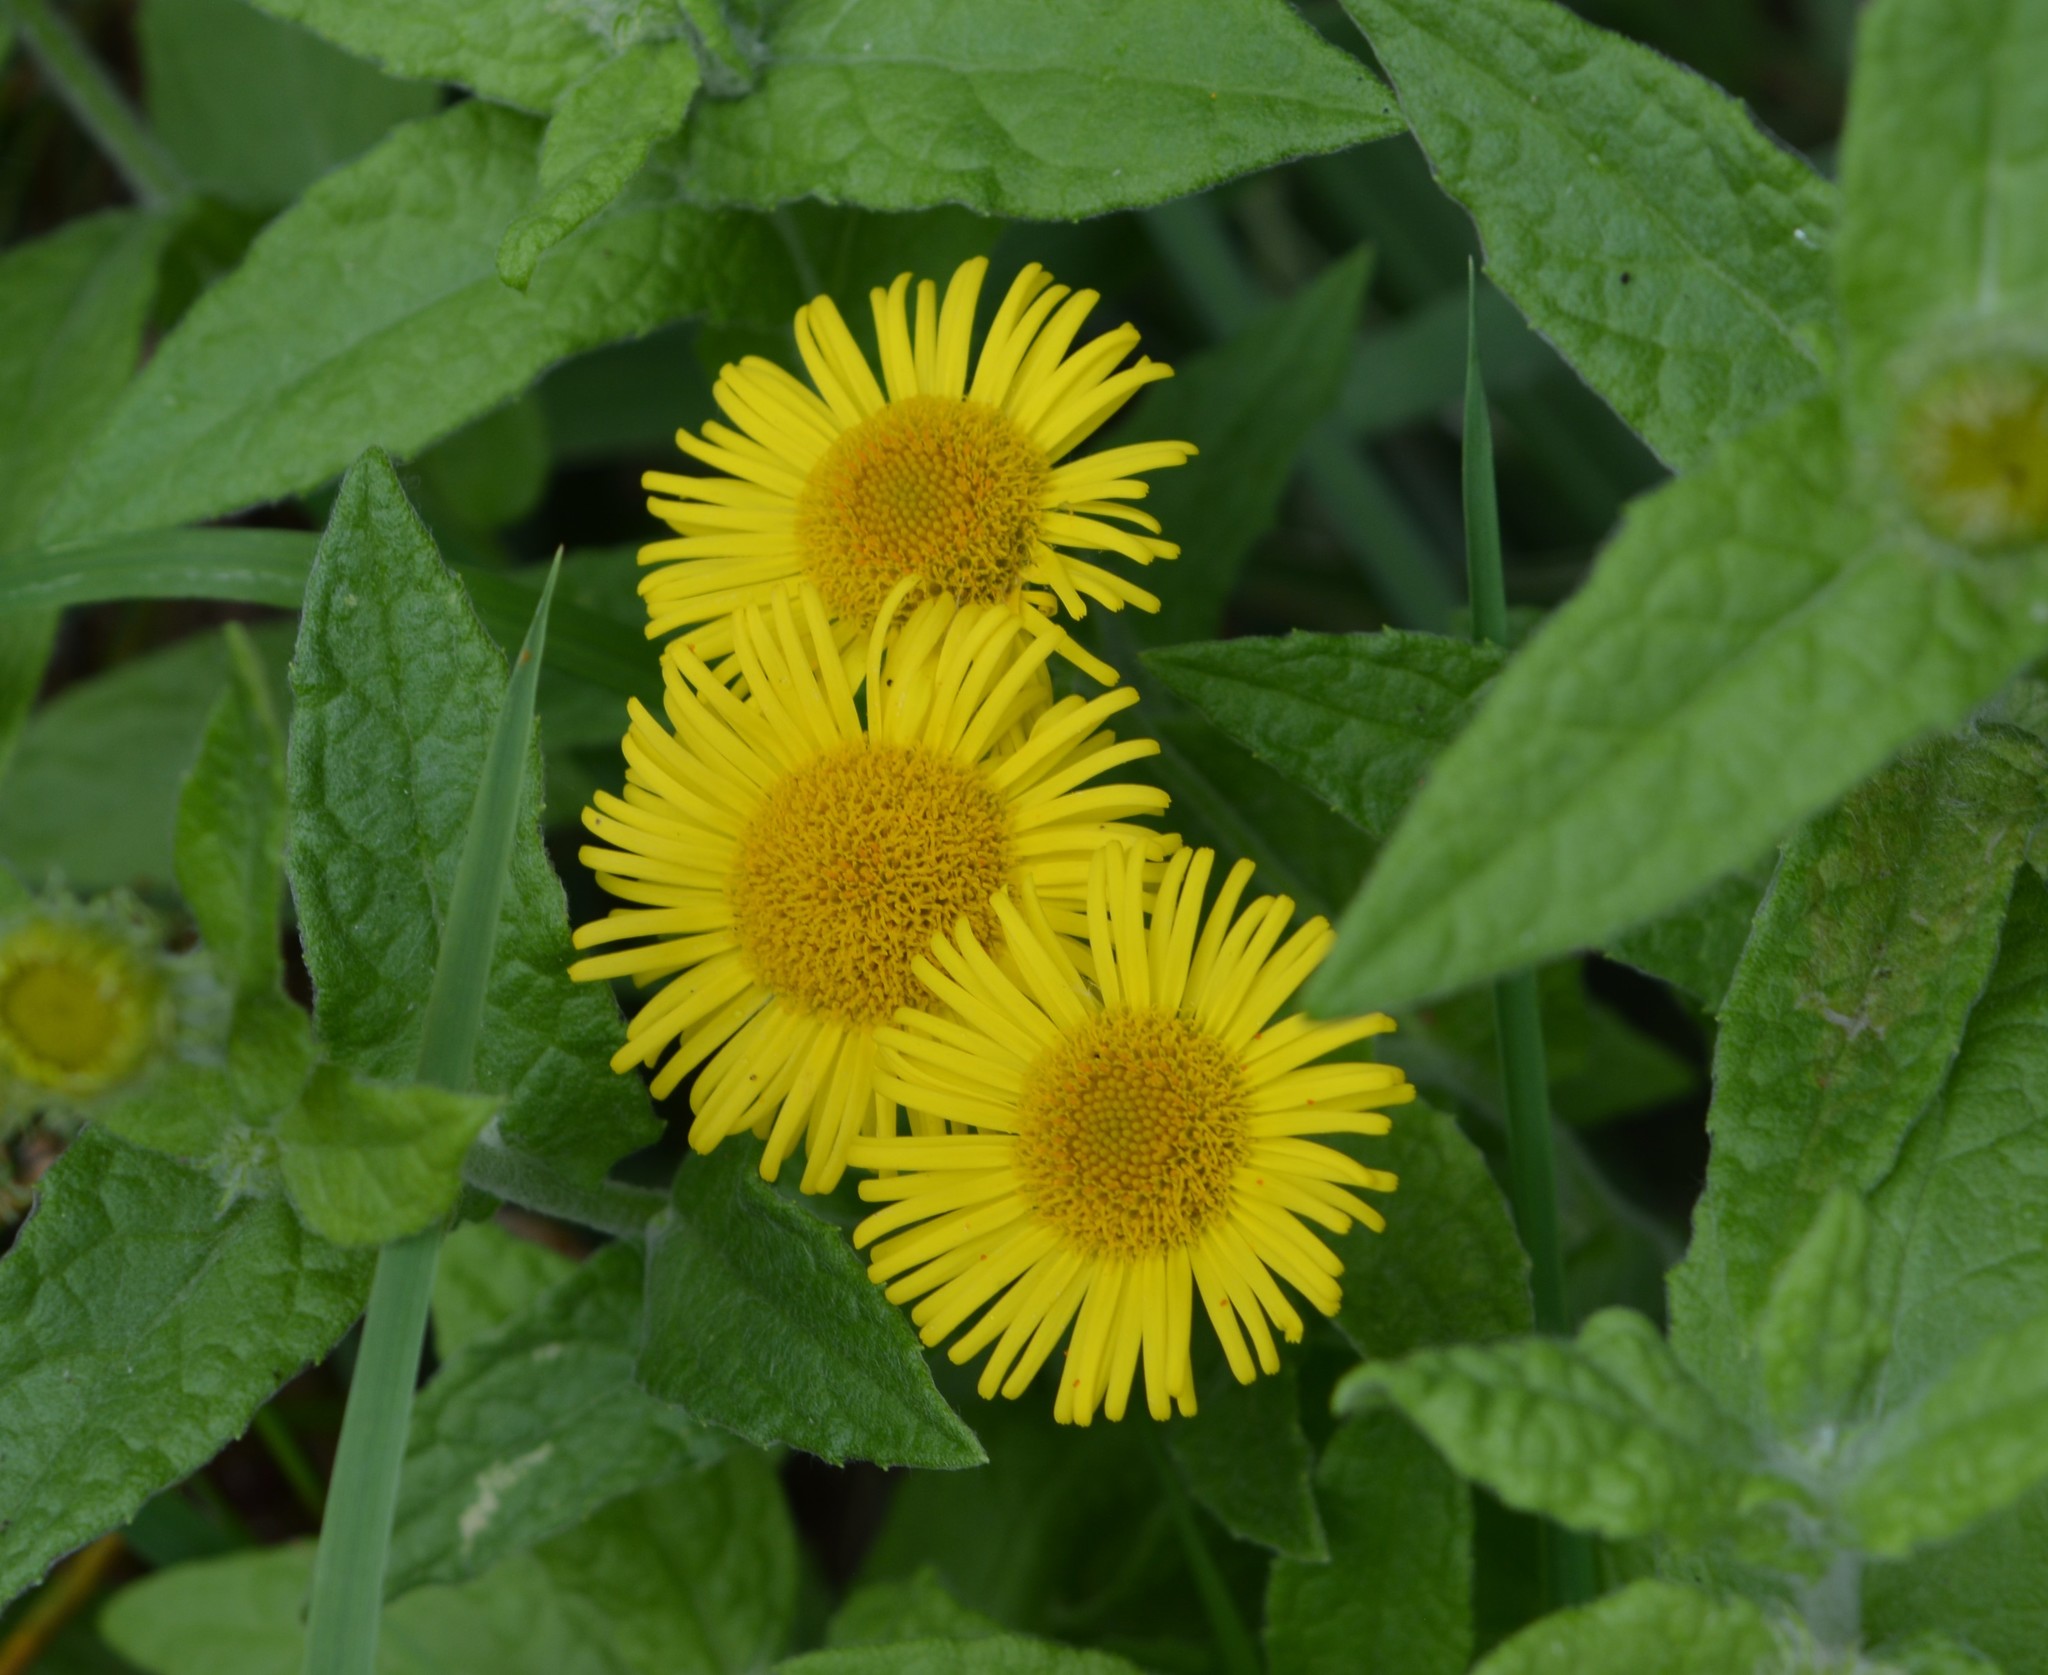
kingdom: Plantae
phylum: Tracheophyta
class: Magnoliopsida
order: Asterales
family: Asteraceae
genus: Pulicaria
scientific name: Pulicaria dysenterica
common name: Common fleabane
